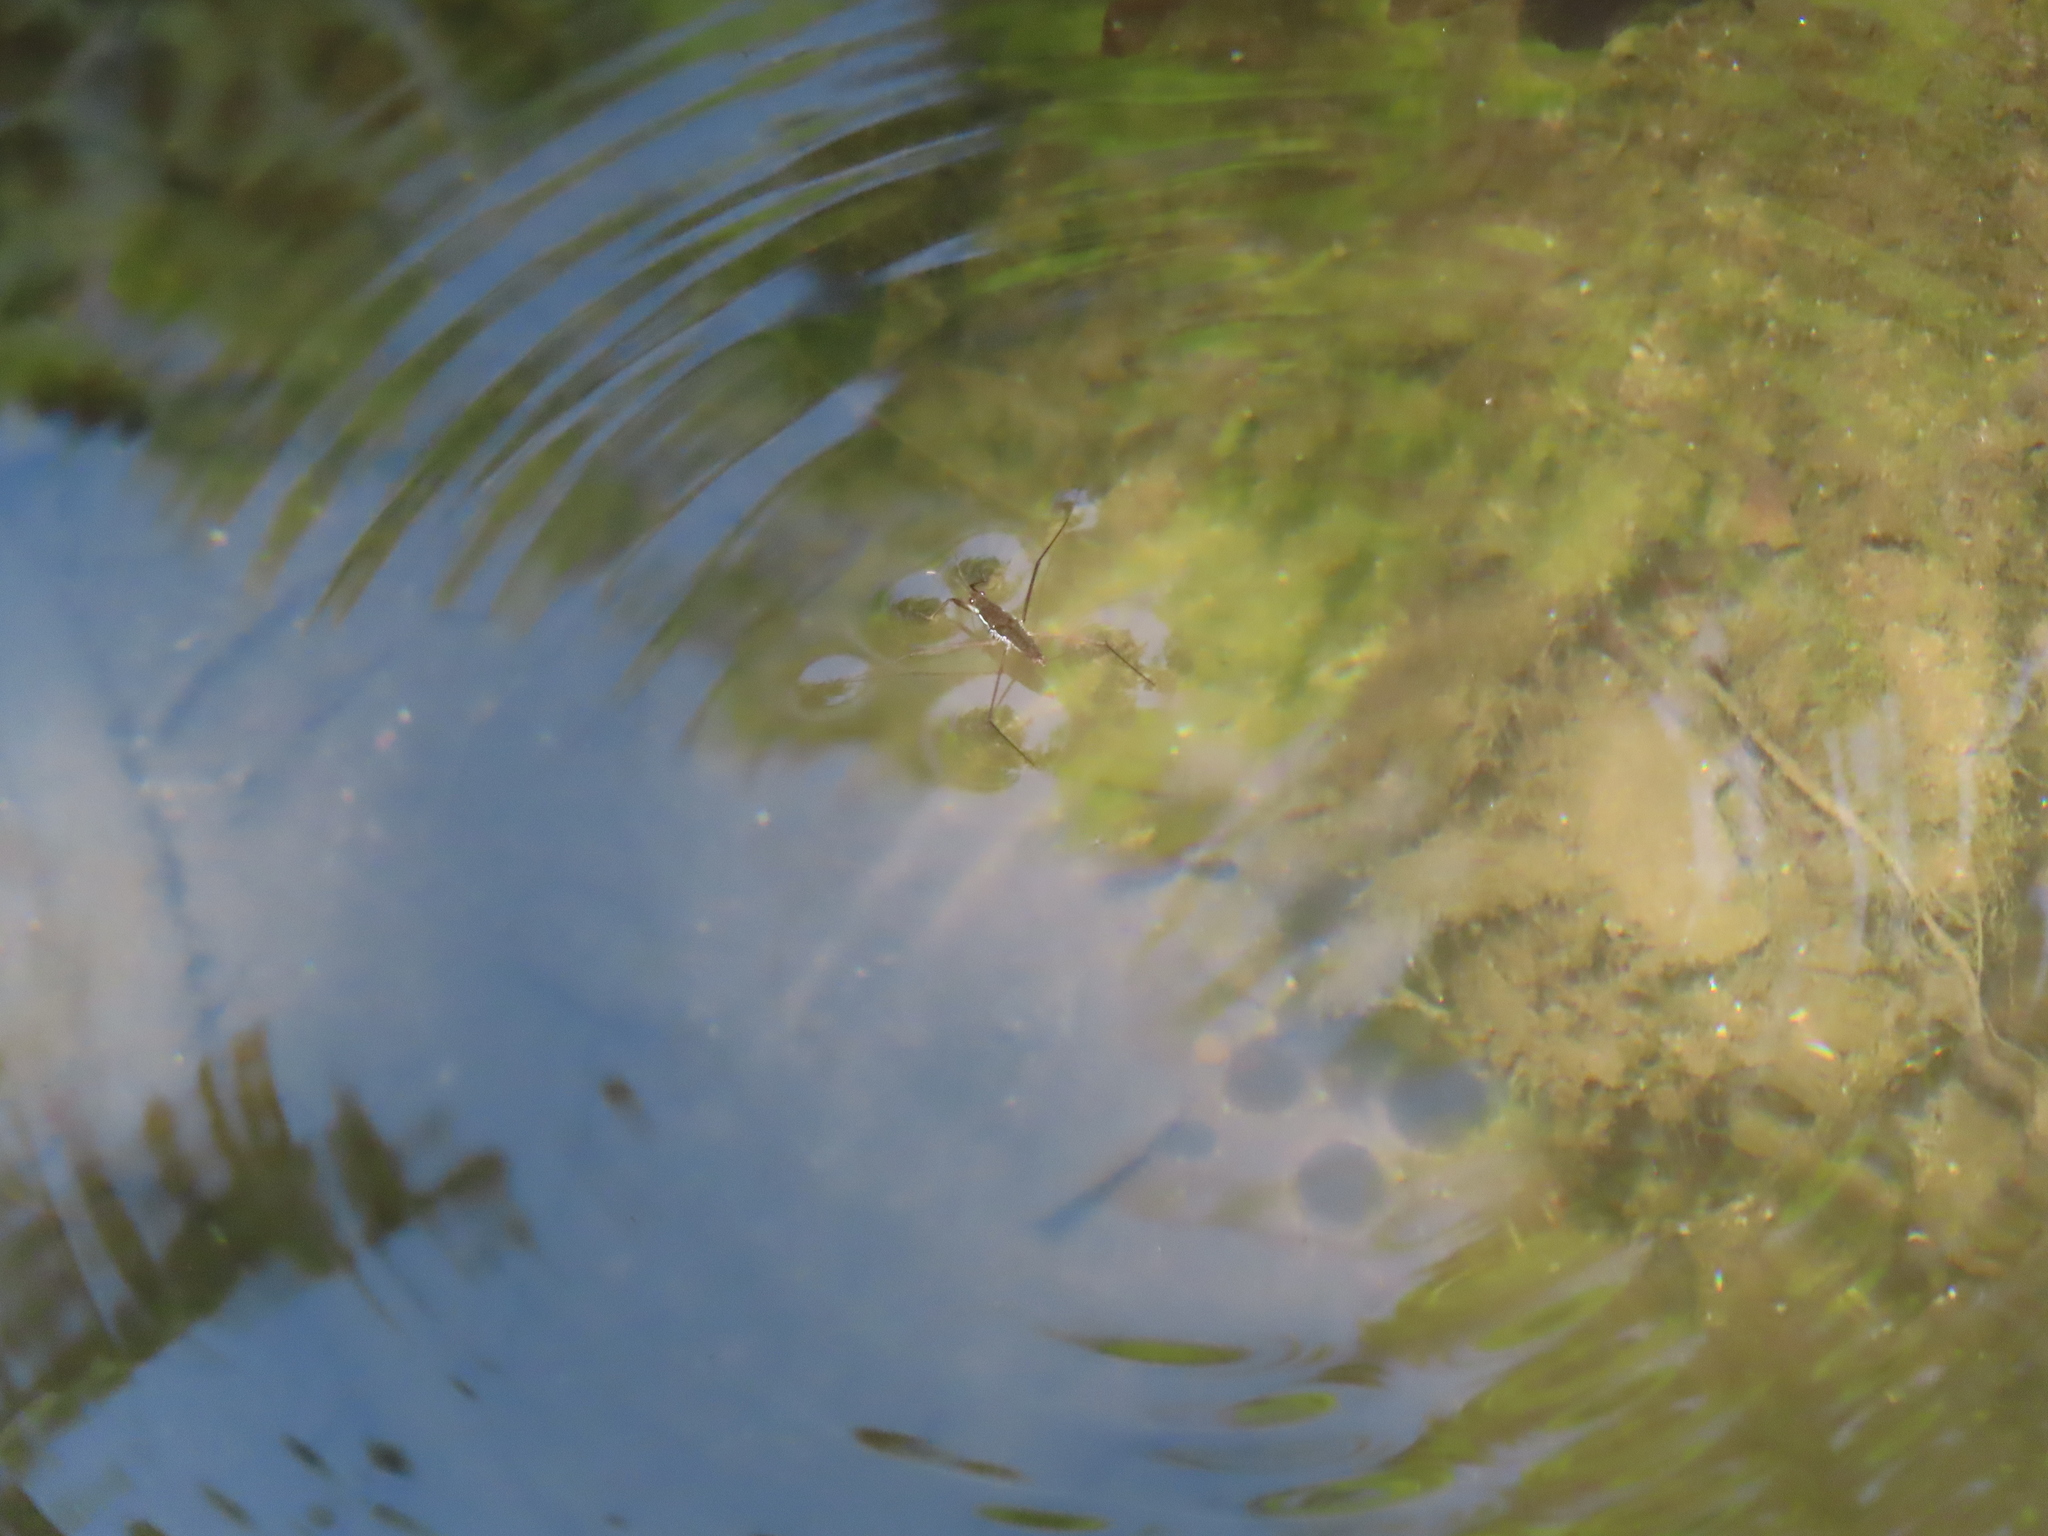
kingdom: Animalia
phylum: Arthropoda
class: Insecta
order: Hemiptera
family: Gerridae
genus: Aquarius
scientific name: Aquarius remigis
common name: Common water strider
